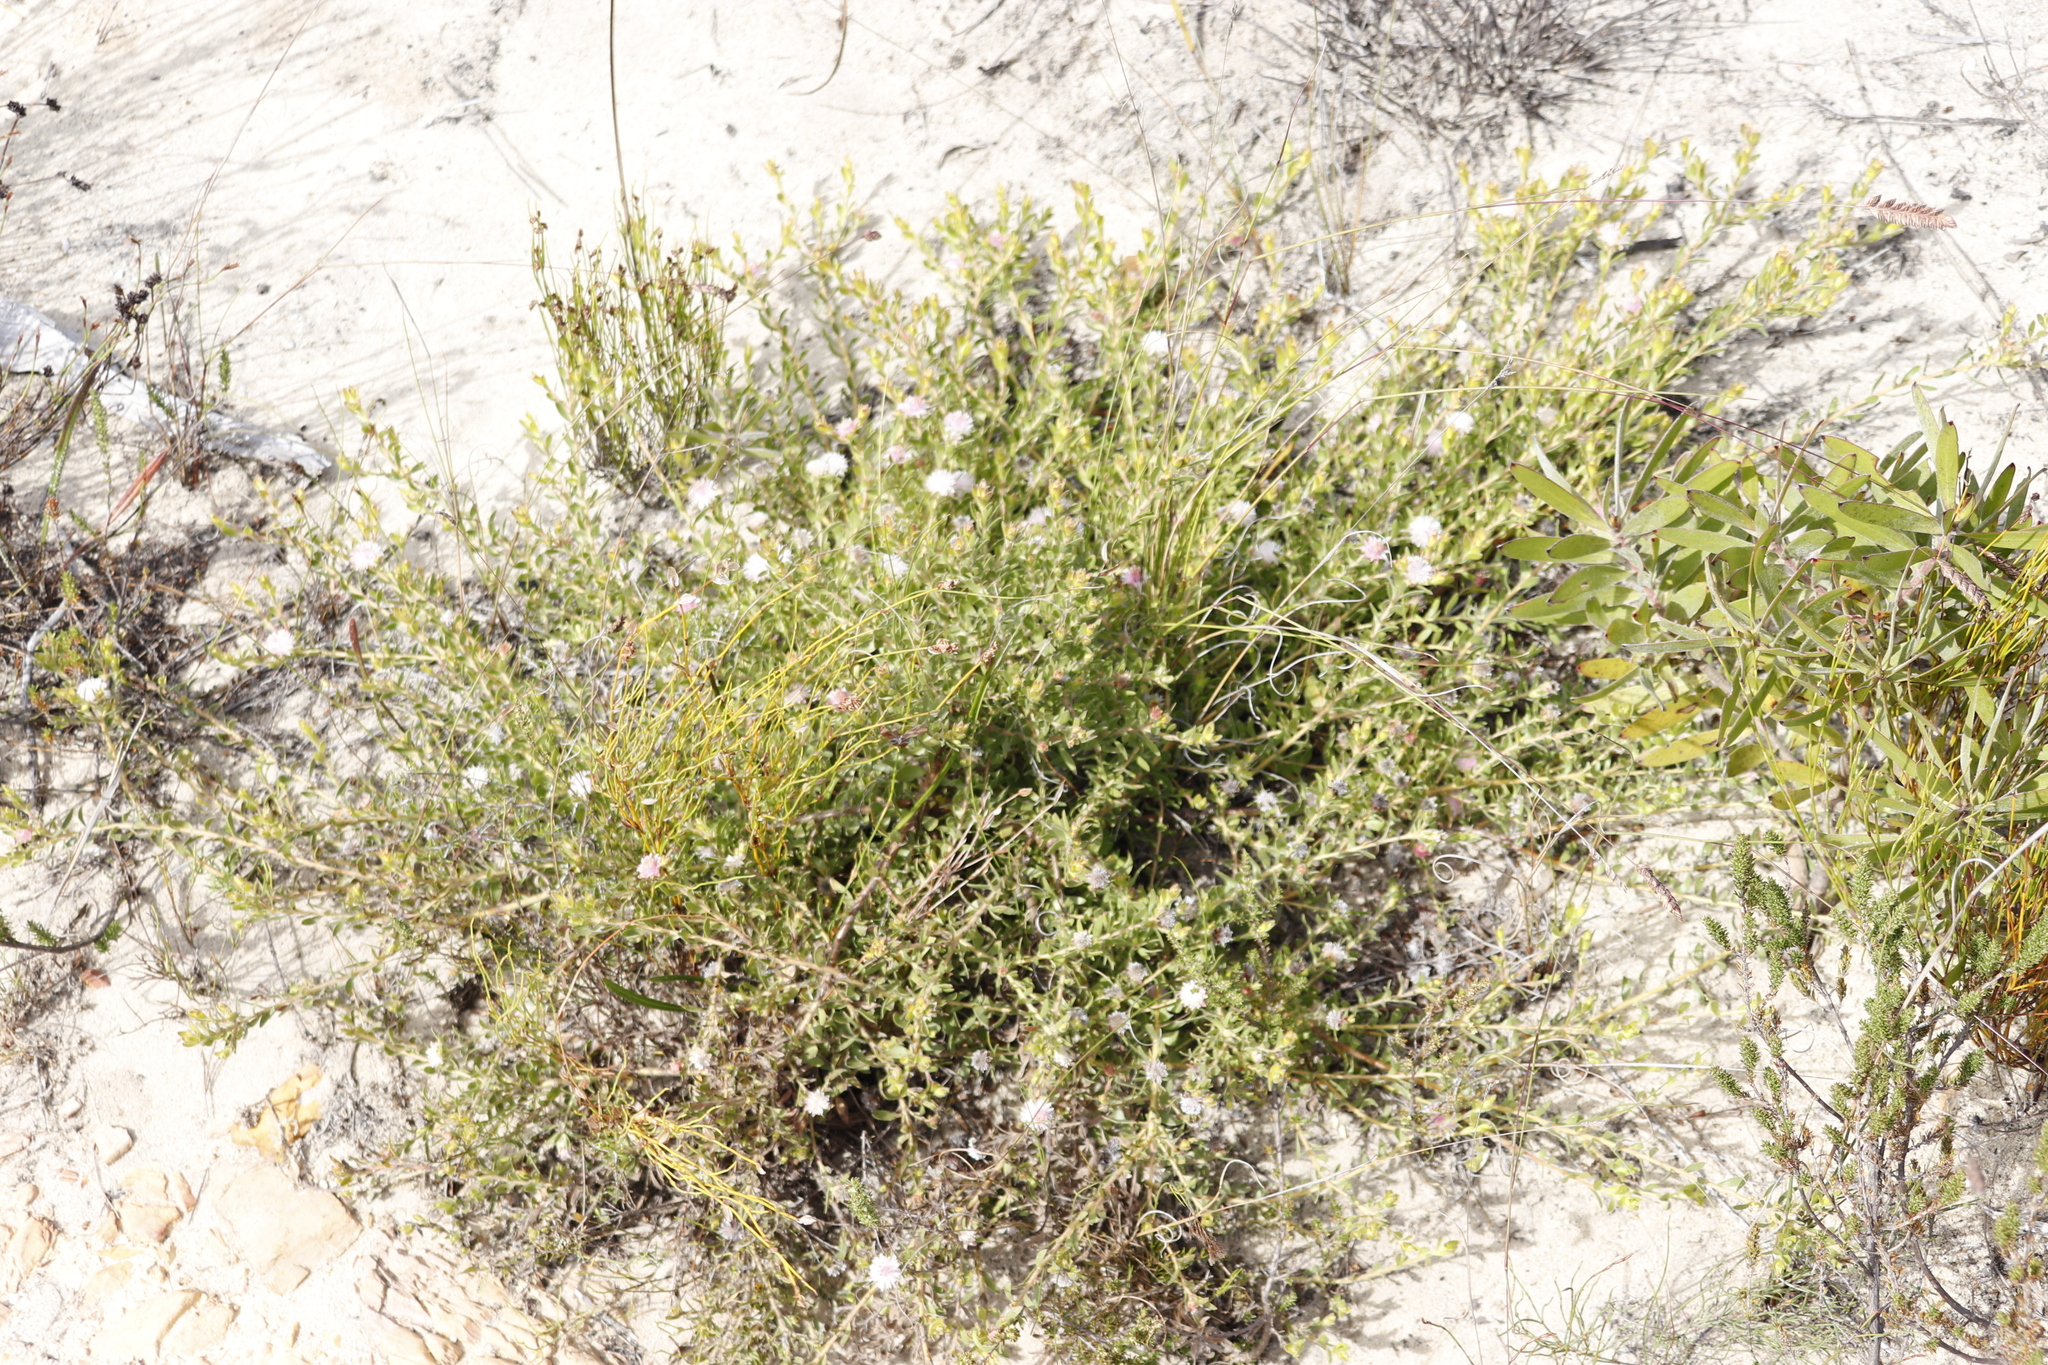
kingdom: Plantae
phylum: Tracheophyta
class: Magnoliopsida
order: Proteales
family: Proteaceae
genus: Diastella
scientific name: Diastella divaricata
